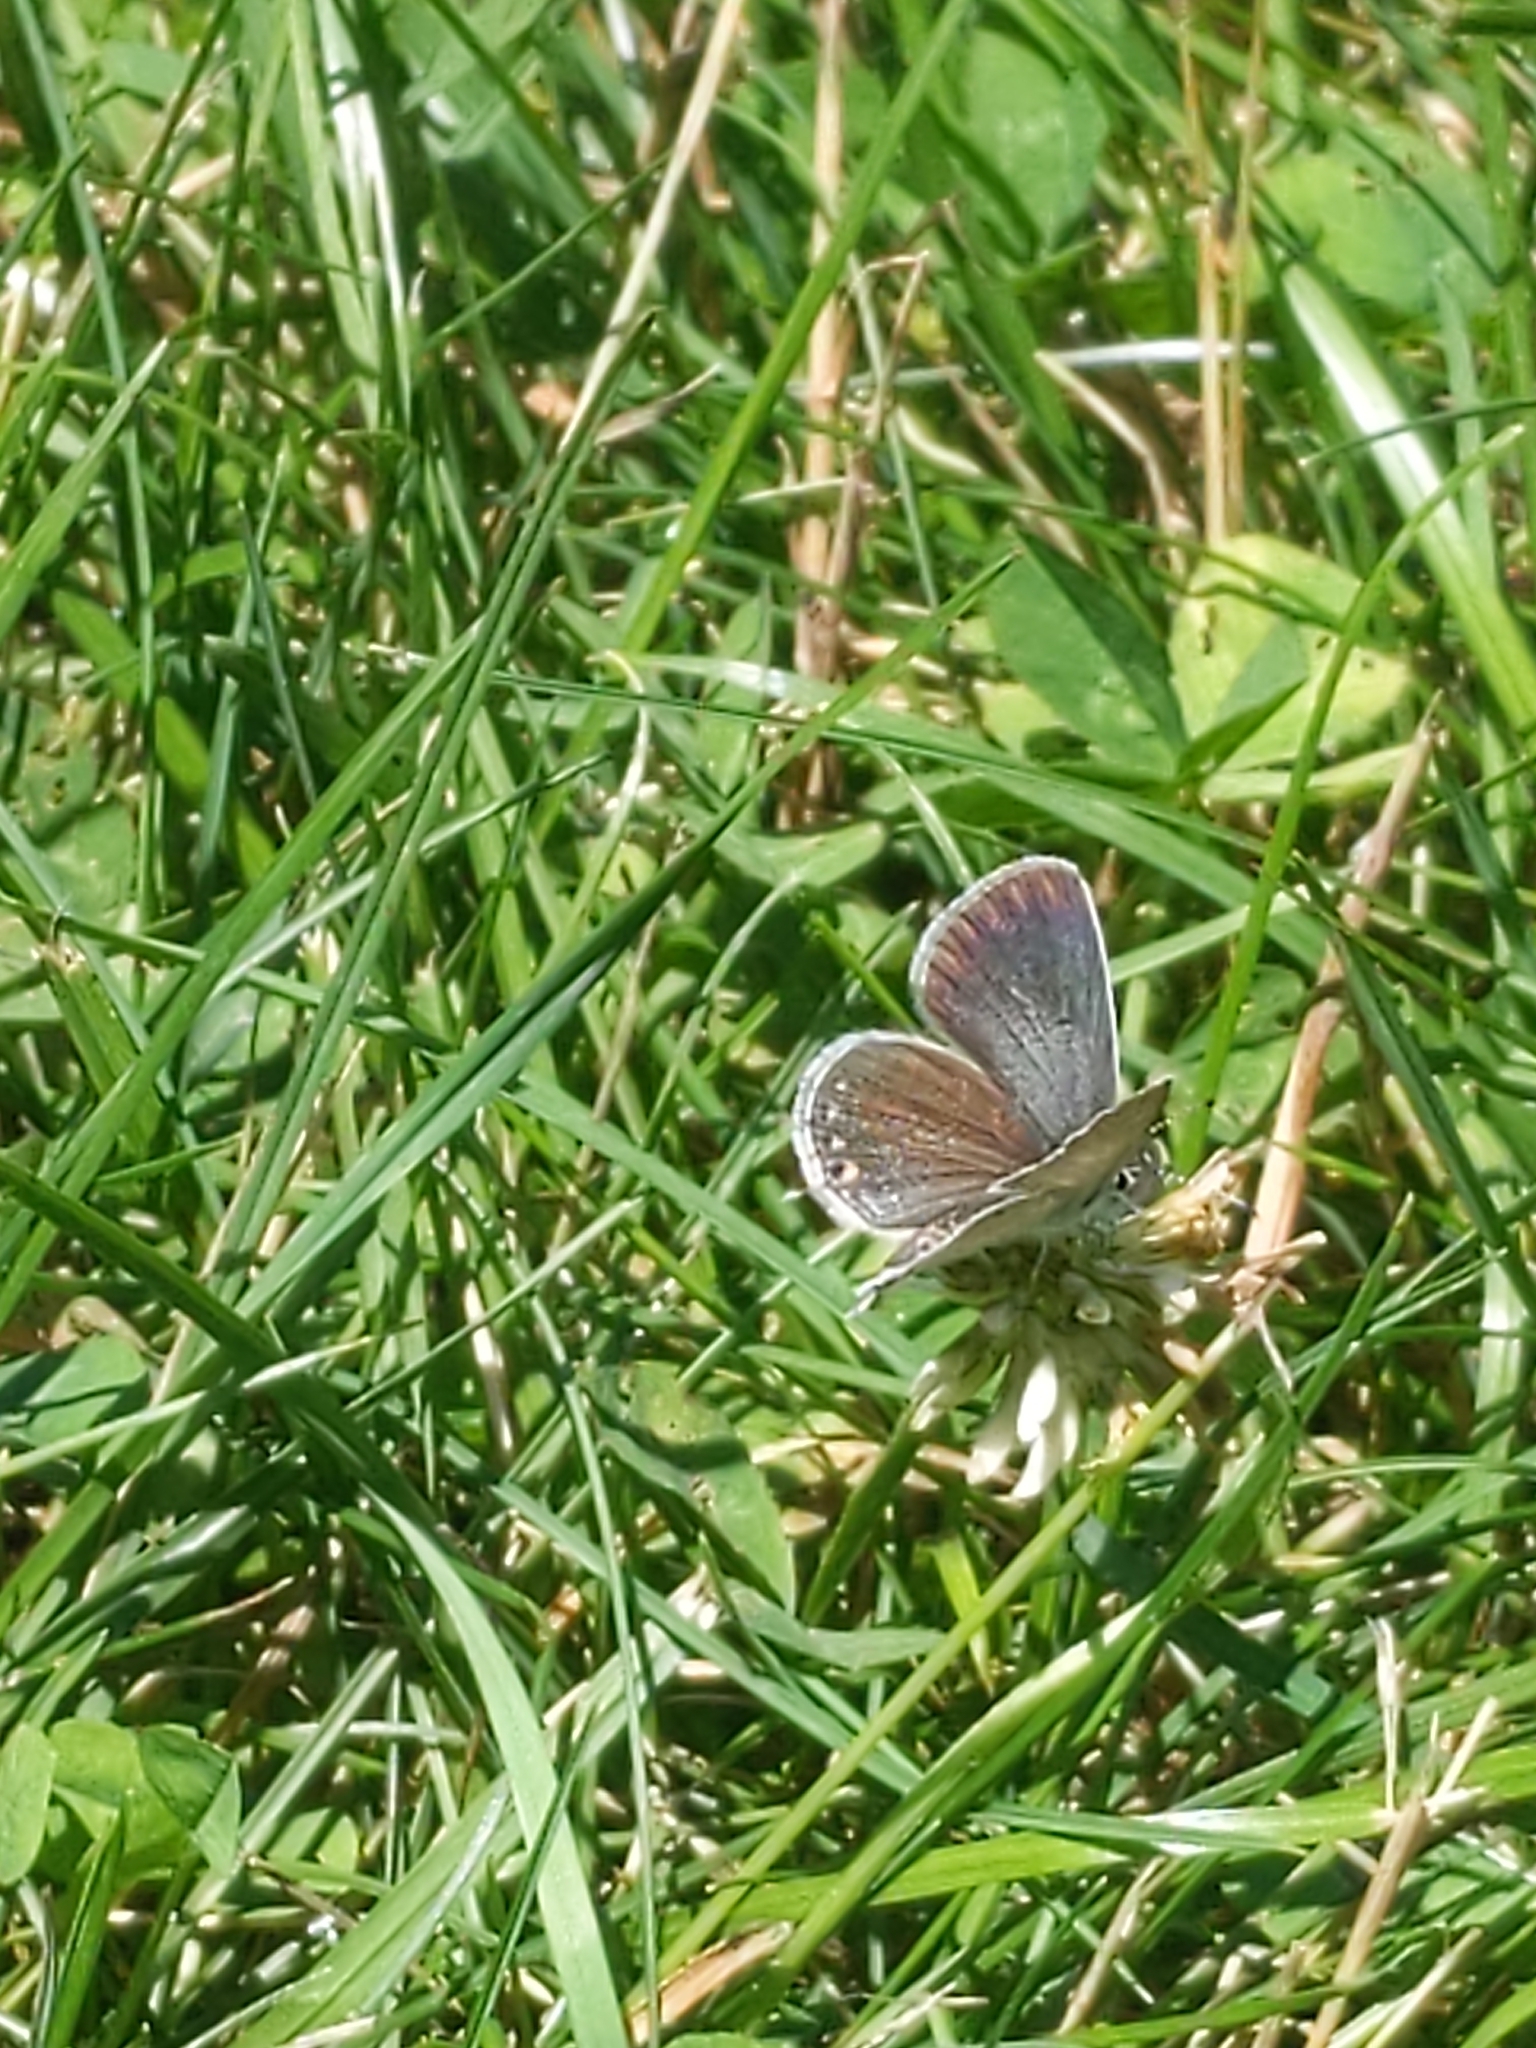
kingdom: Animalia
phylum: Arthropoda
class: Insecta
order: Lepidoptera
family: Lycaenidae
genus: Elkalyce
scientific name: Elkalyce comyntas
